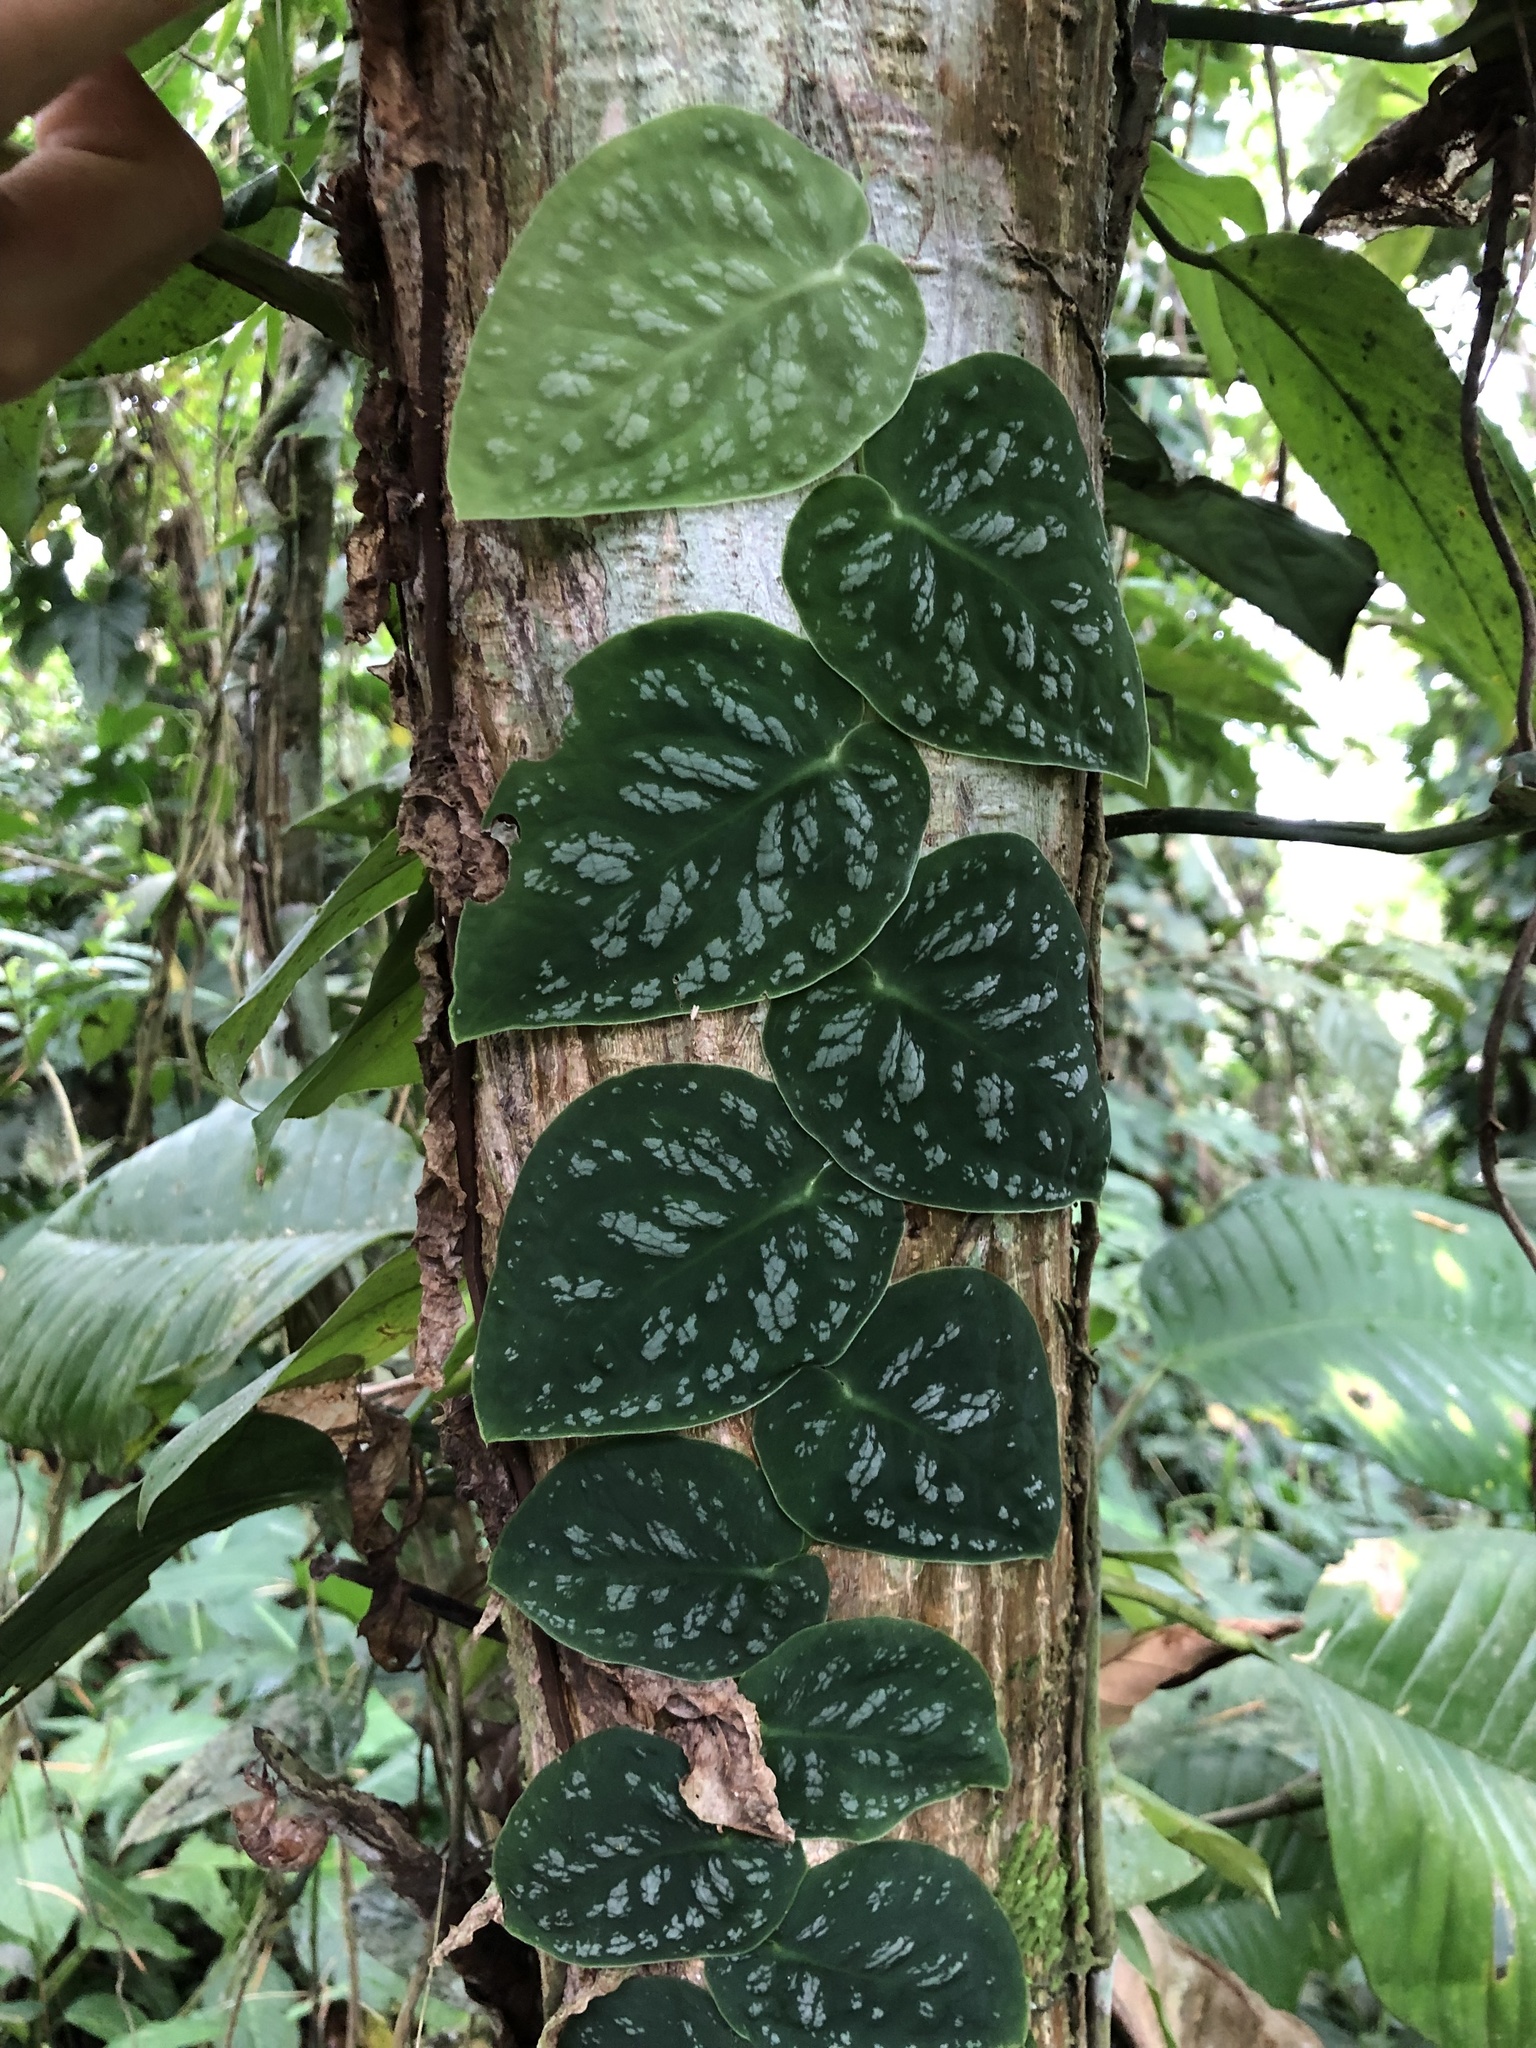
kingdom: Plantae
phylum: Tracheophyta
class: Liliopsida
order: Alismatales
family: Araceae
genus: Monstera
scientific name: Monstera dubia
